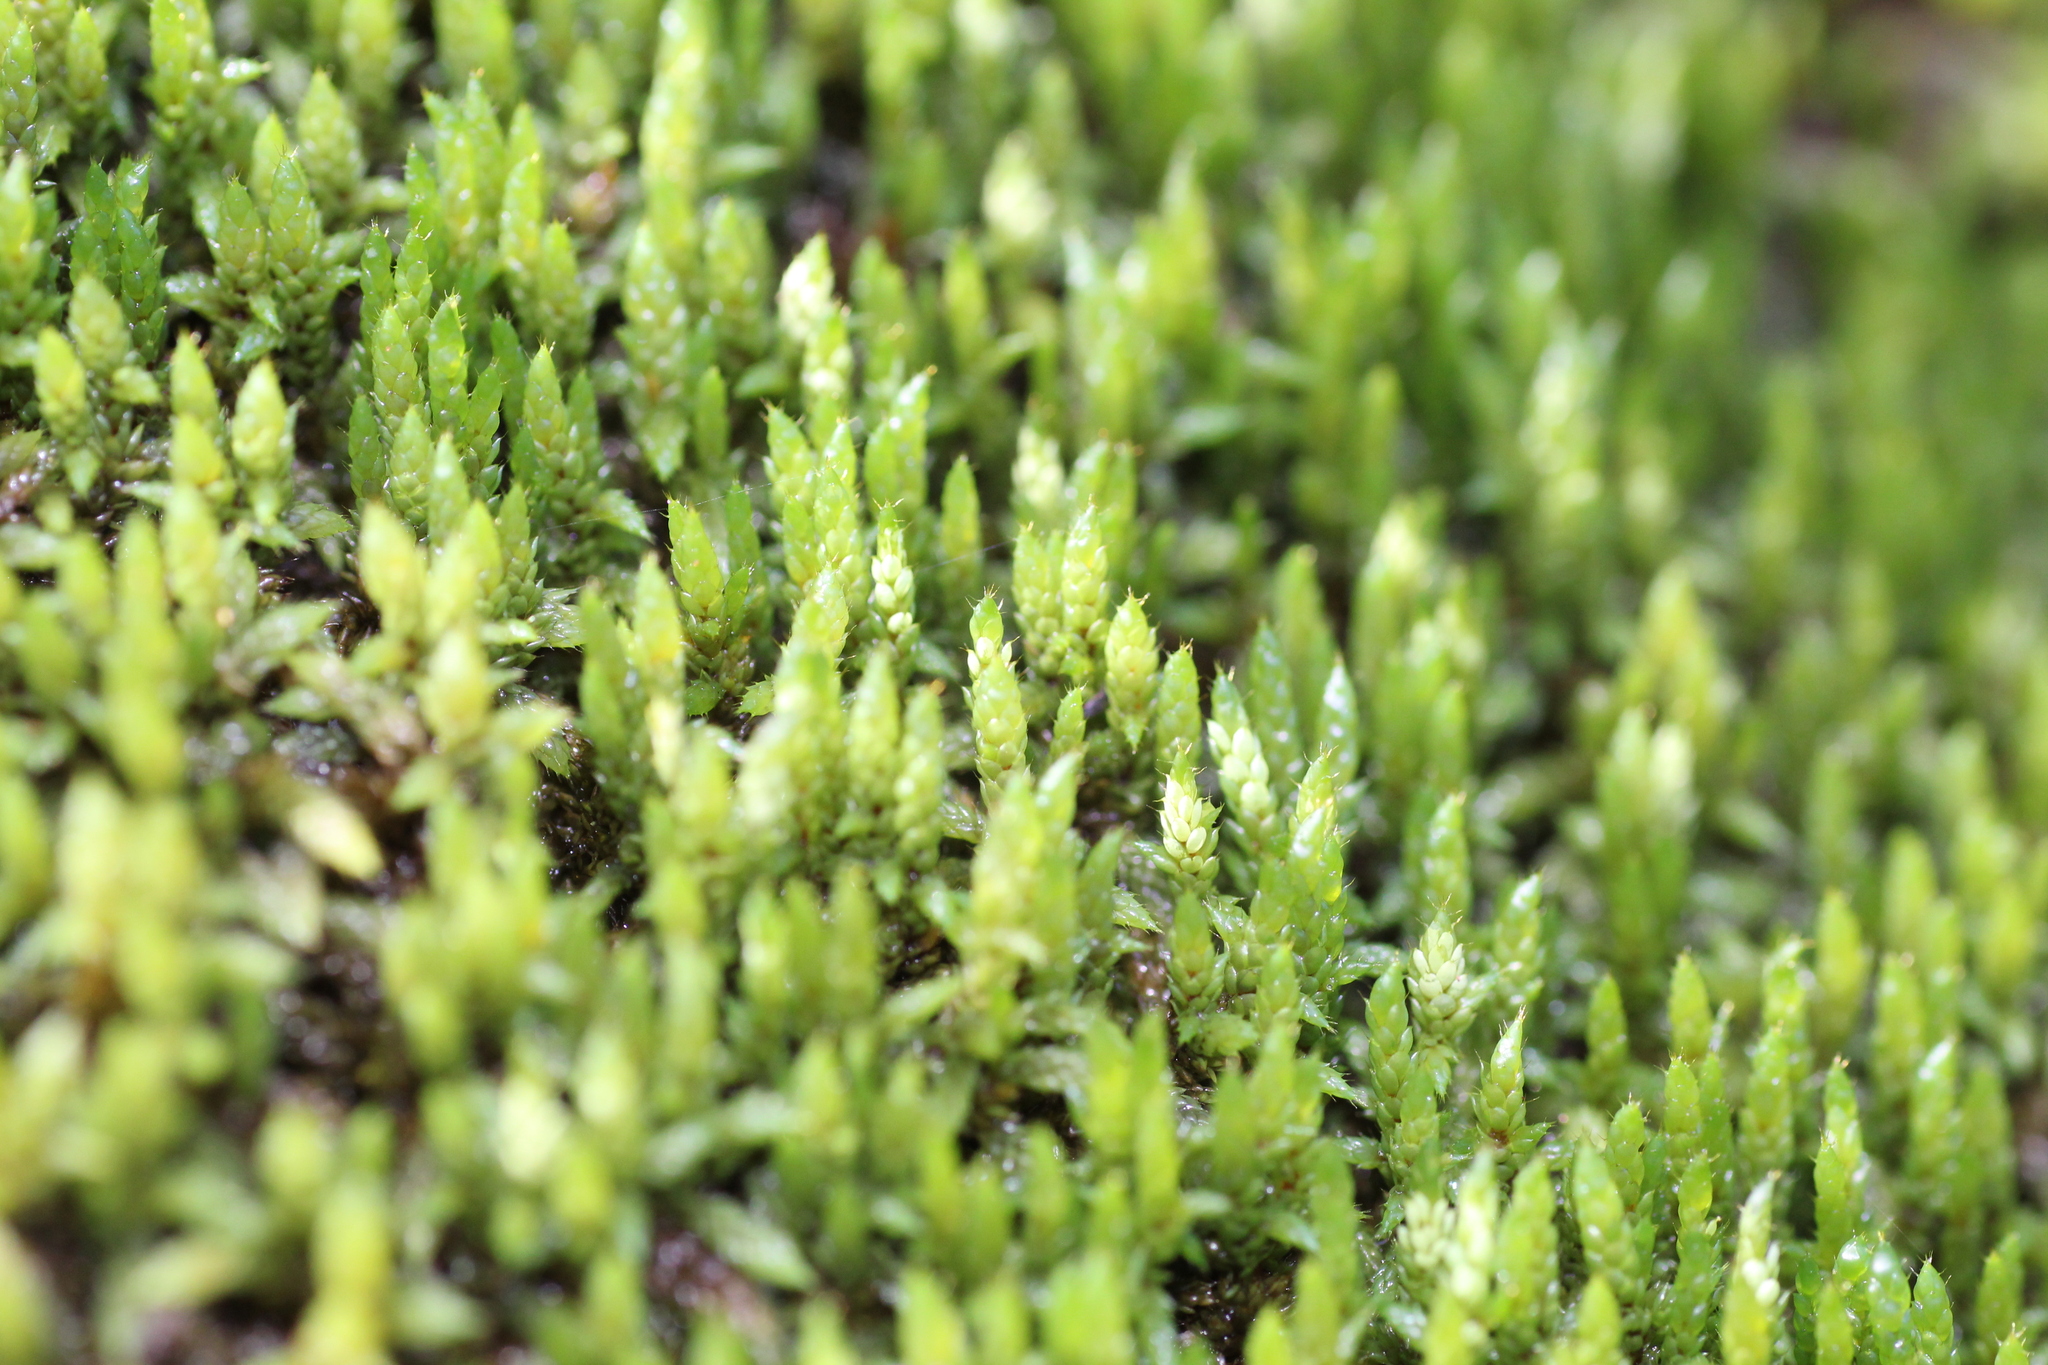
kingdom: Plantae
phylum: Bryophyta
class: Bryopsida
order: Hedwigiales
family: Hedwigiaceae
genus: Rhacocarpus
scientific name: Rhacocarpus purpurascens
